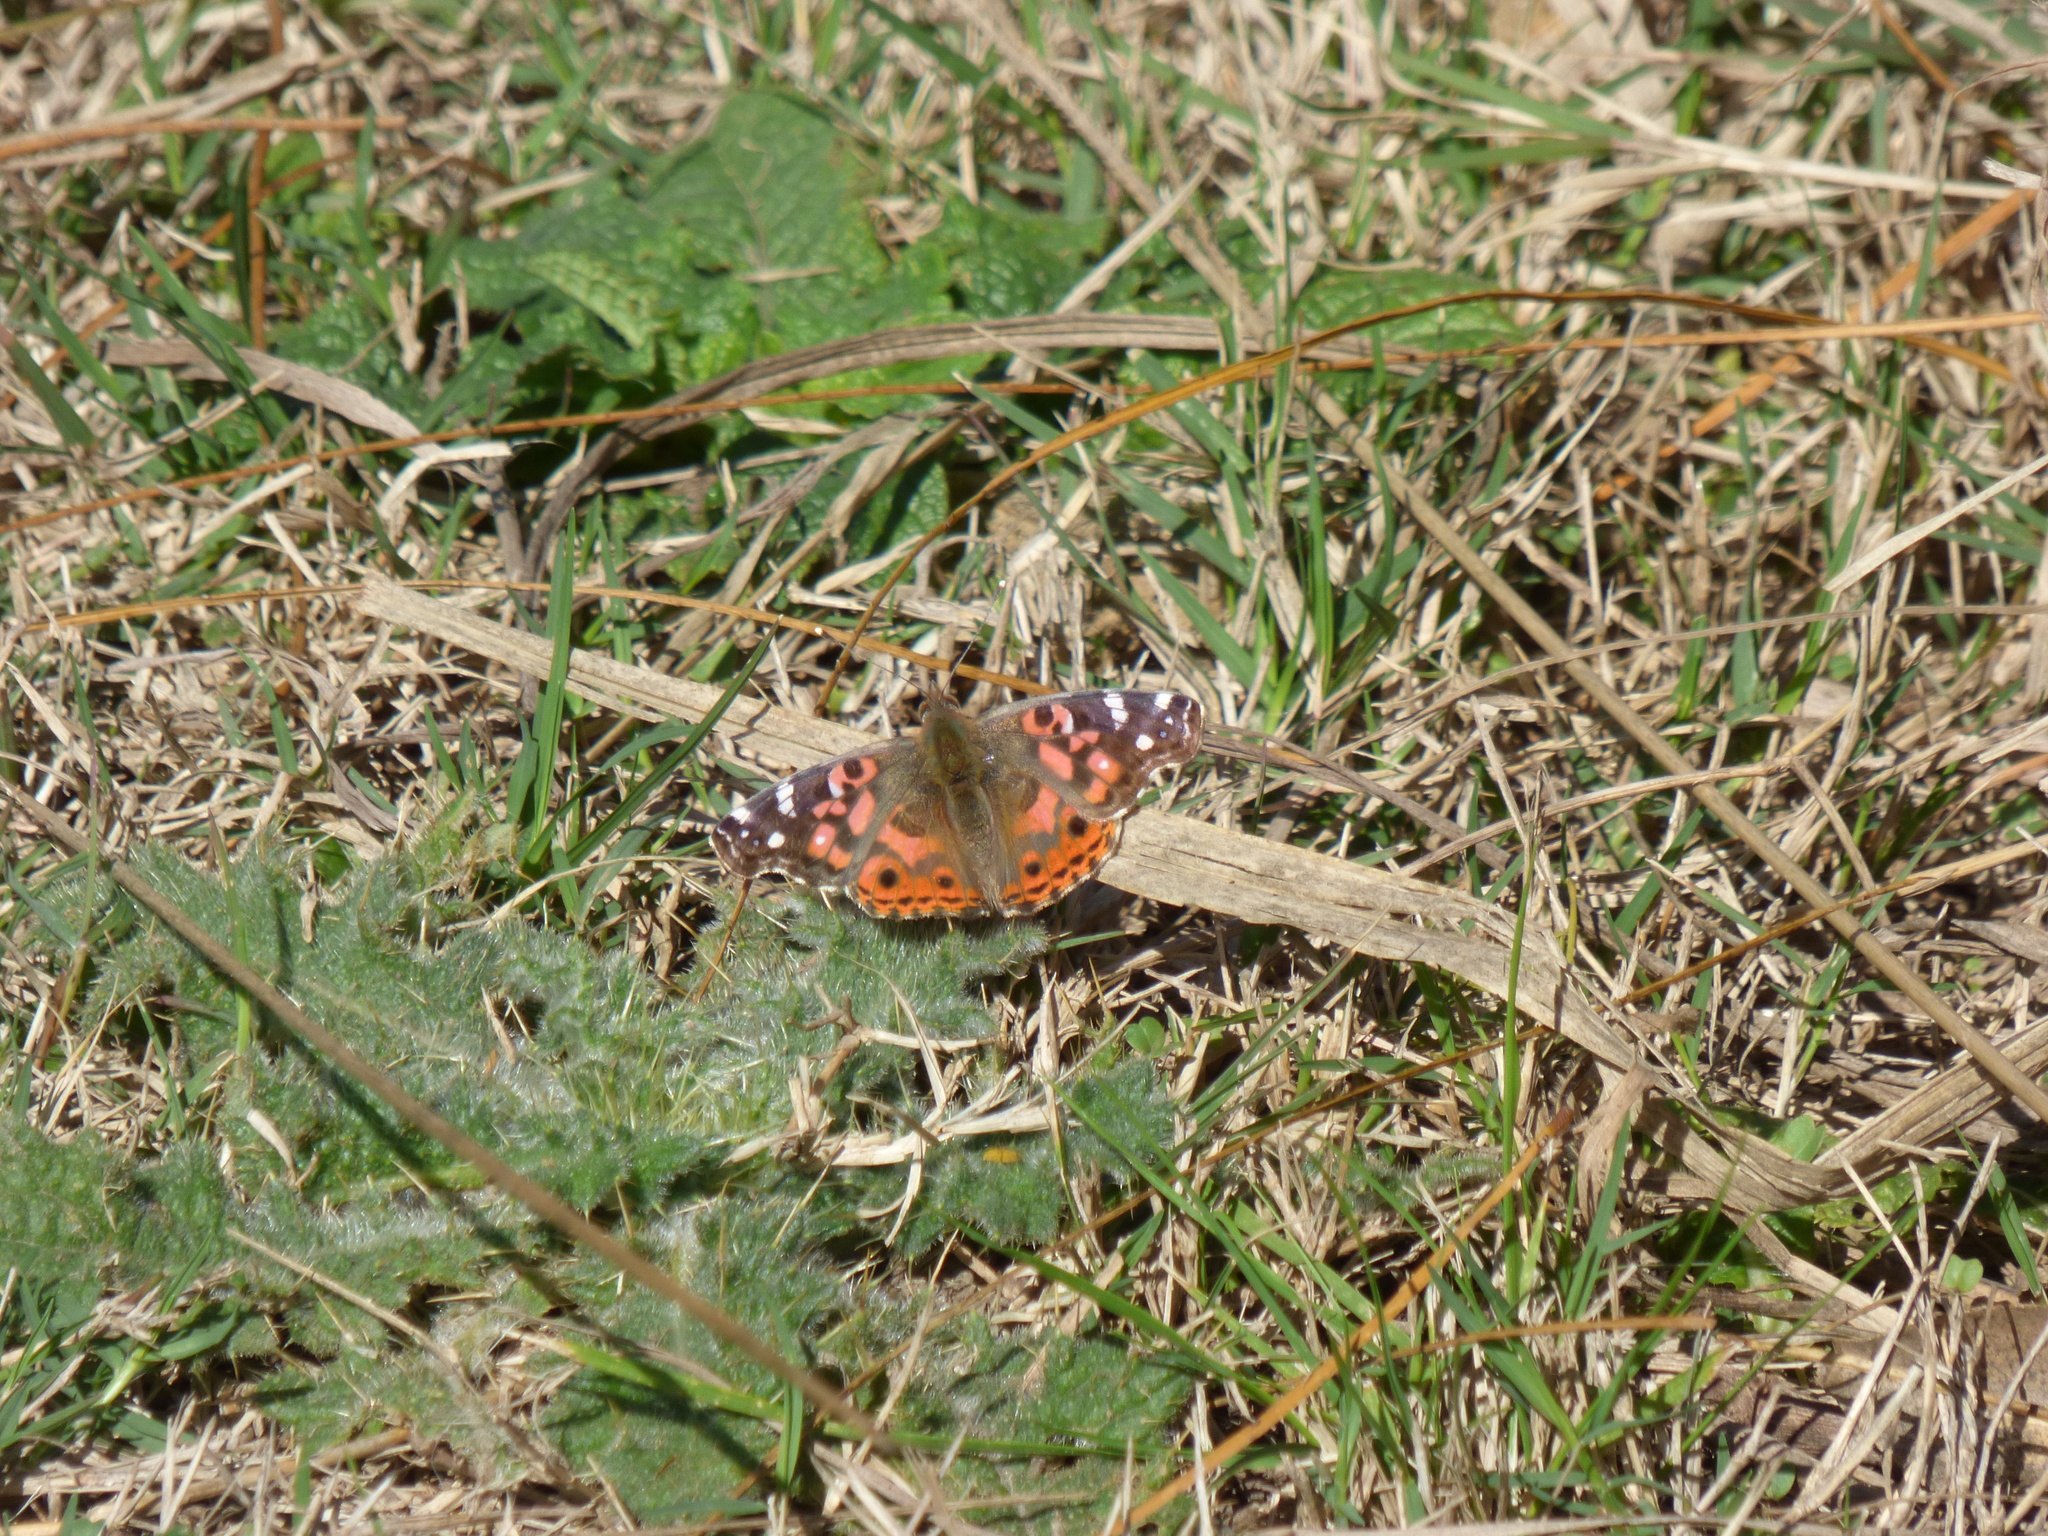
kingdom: Animalia
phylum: Arthropoda
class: Insecta
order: Lepidoptera
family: Nymphalidae
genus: Vanessa
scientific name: Vanessa braziliensis
